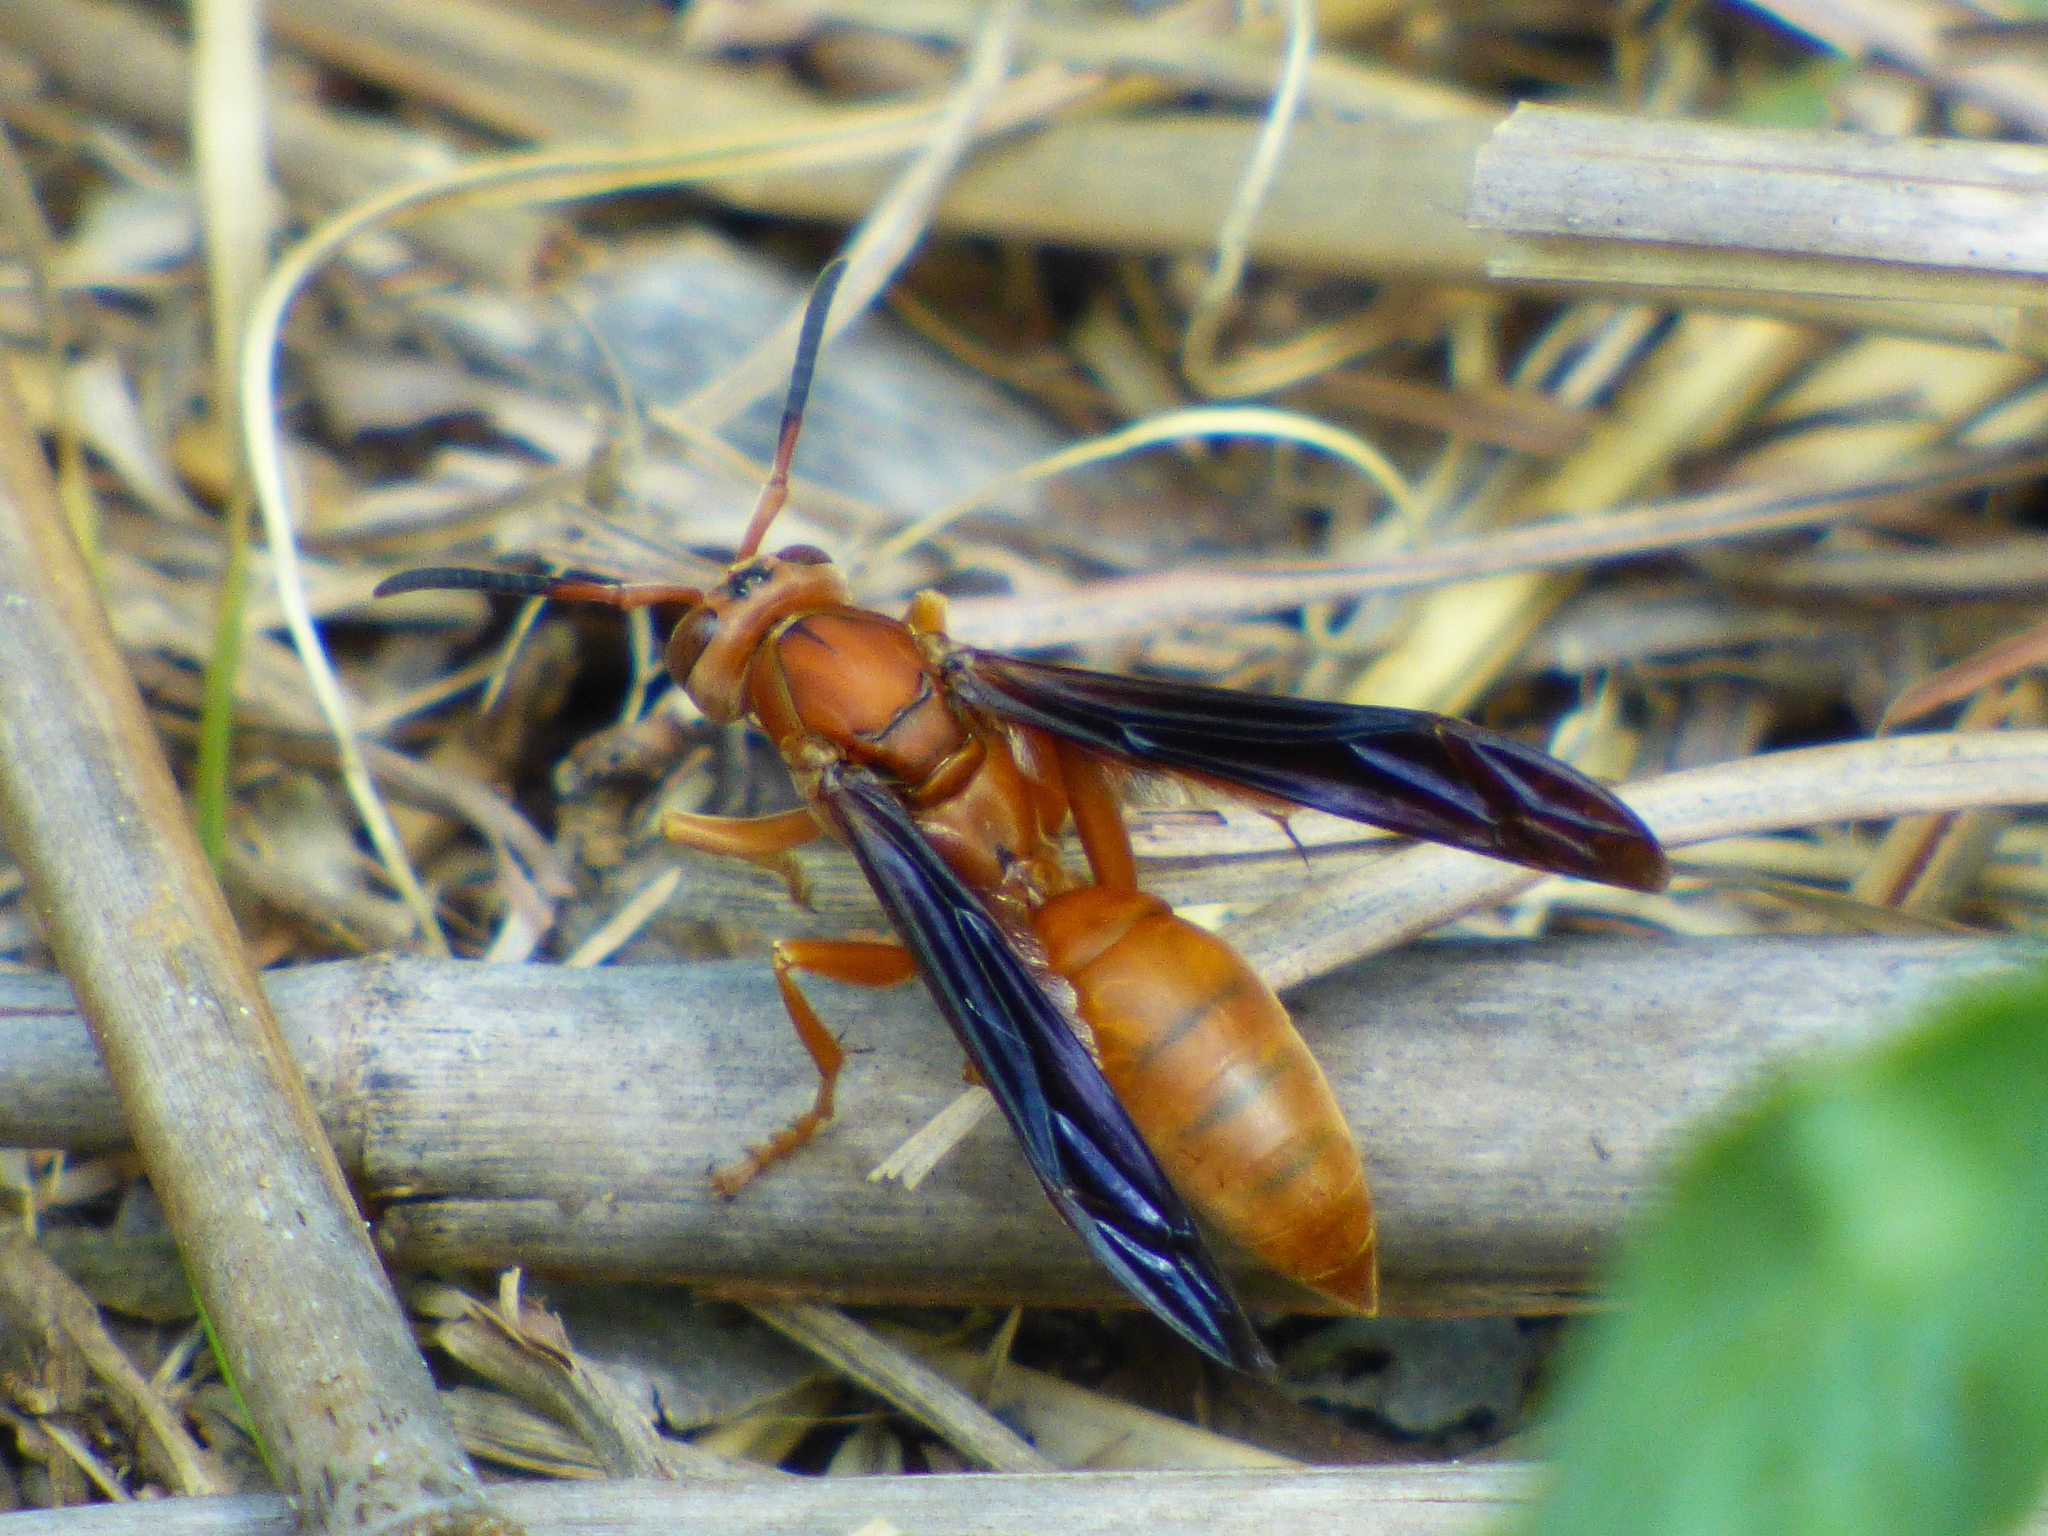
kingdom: Animalia
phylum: Arthropoda
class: Insecta
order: Hymenoptera
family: Eumenidae
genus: Polistes
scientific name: Polistes carolina
